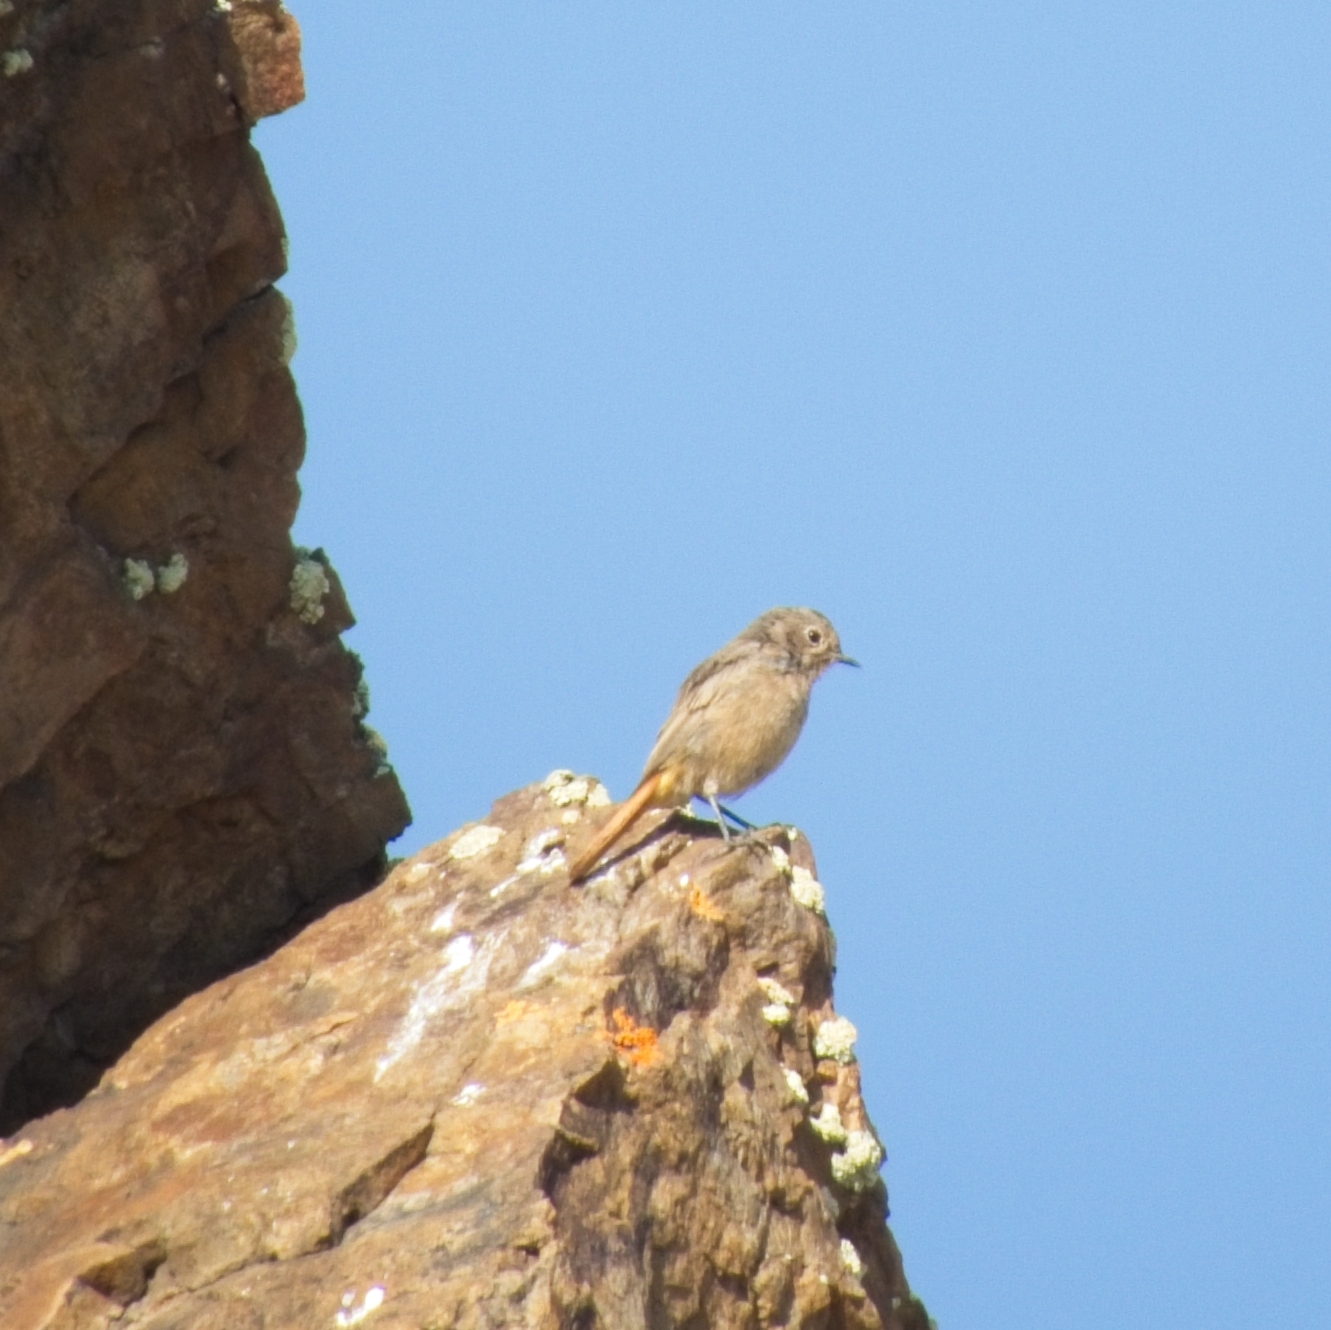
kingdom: Animalia
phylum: Chordata
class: Aves
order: Passeriformes
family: Muscicapidae
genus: Phoenicurus
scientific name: Phoenicurus phoenicurus
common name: Common redstart
